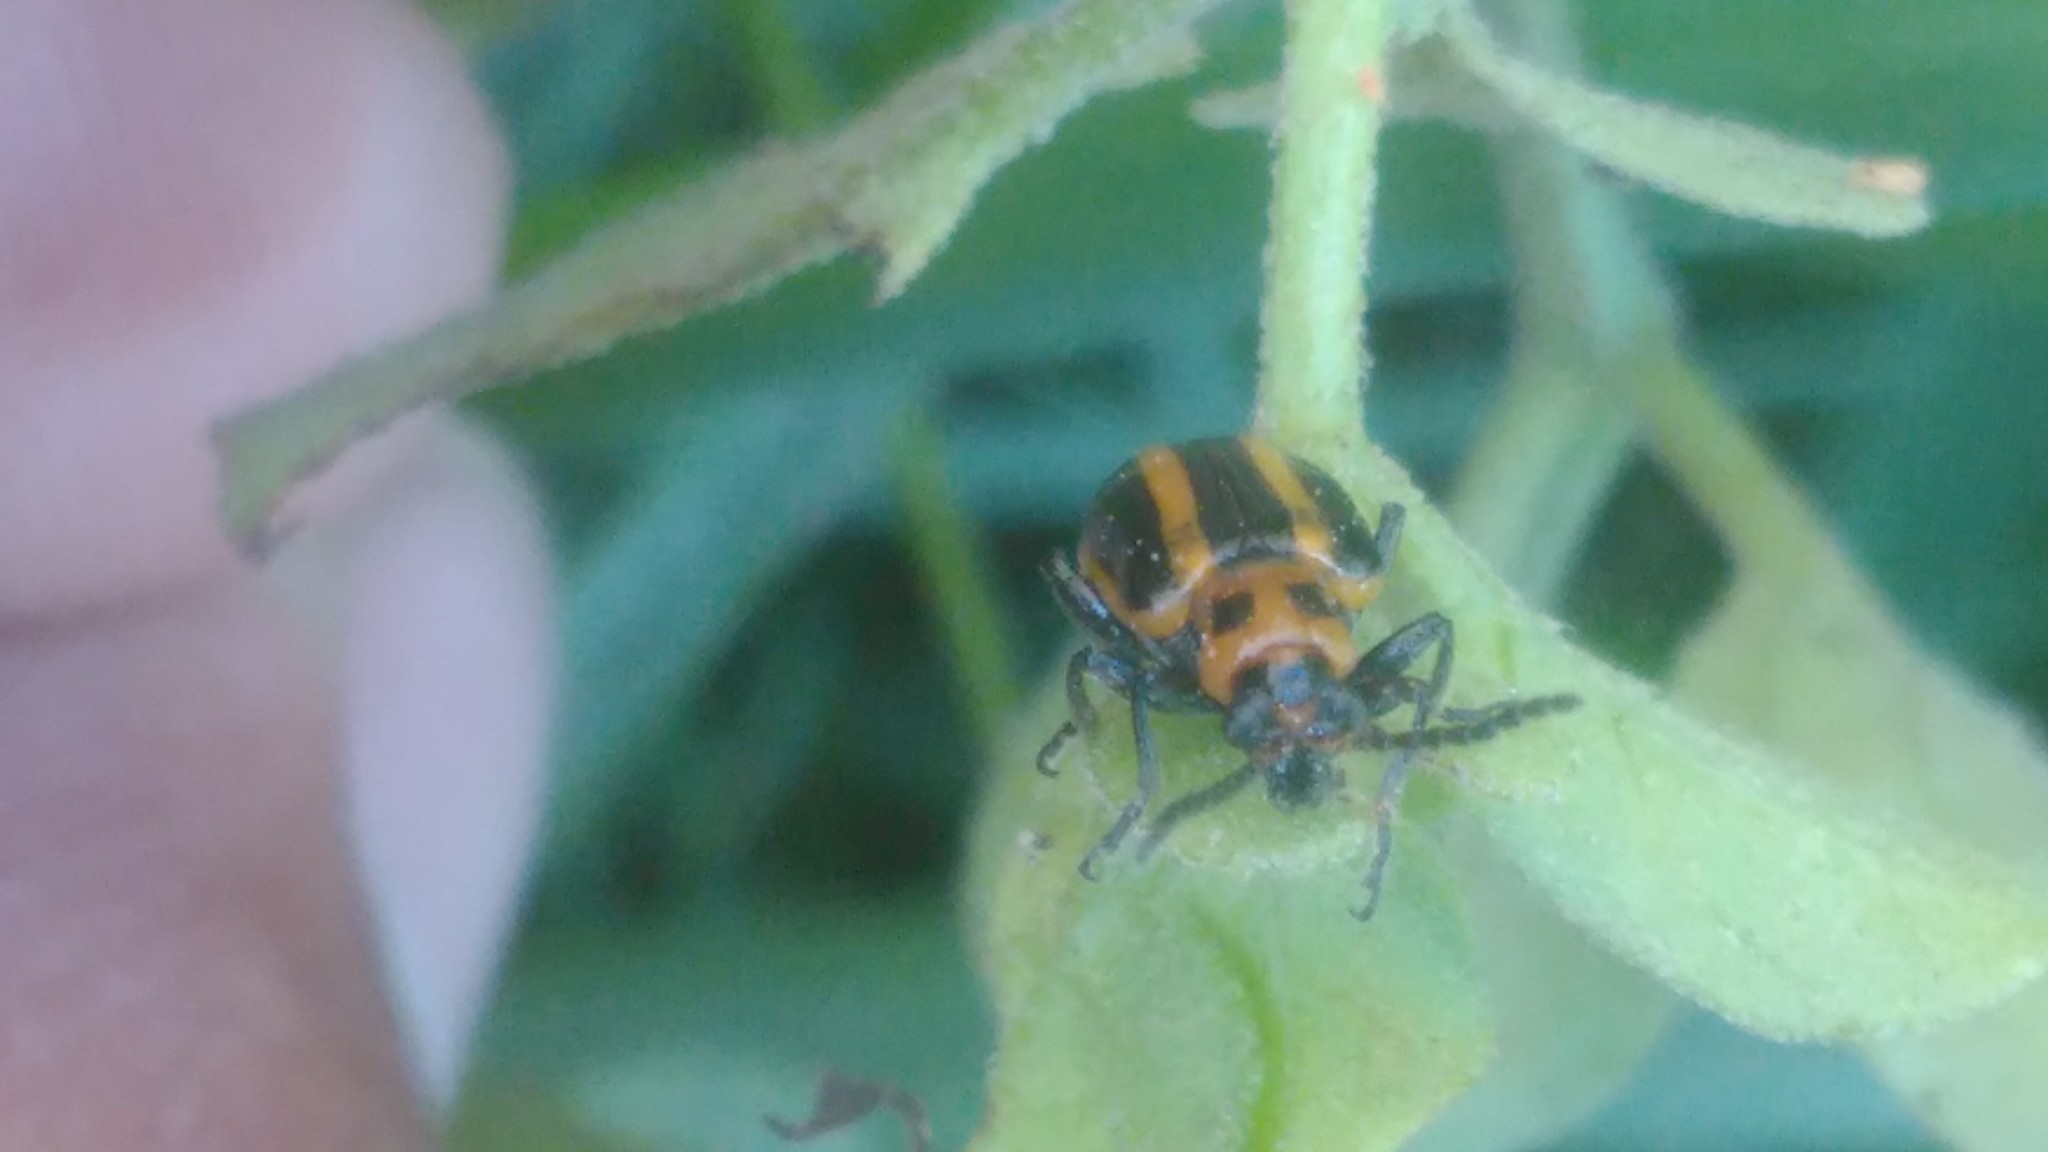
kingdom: Animalia
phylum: Arthropoda
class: Insecta
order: Coleoptera
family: Chrysomelidae
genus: Lema
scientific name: Lema bilineata
